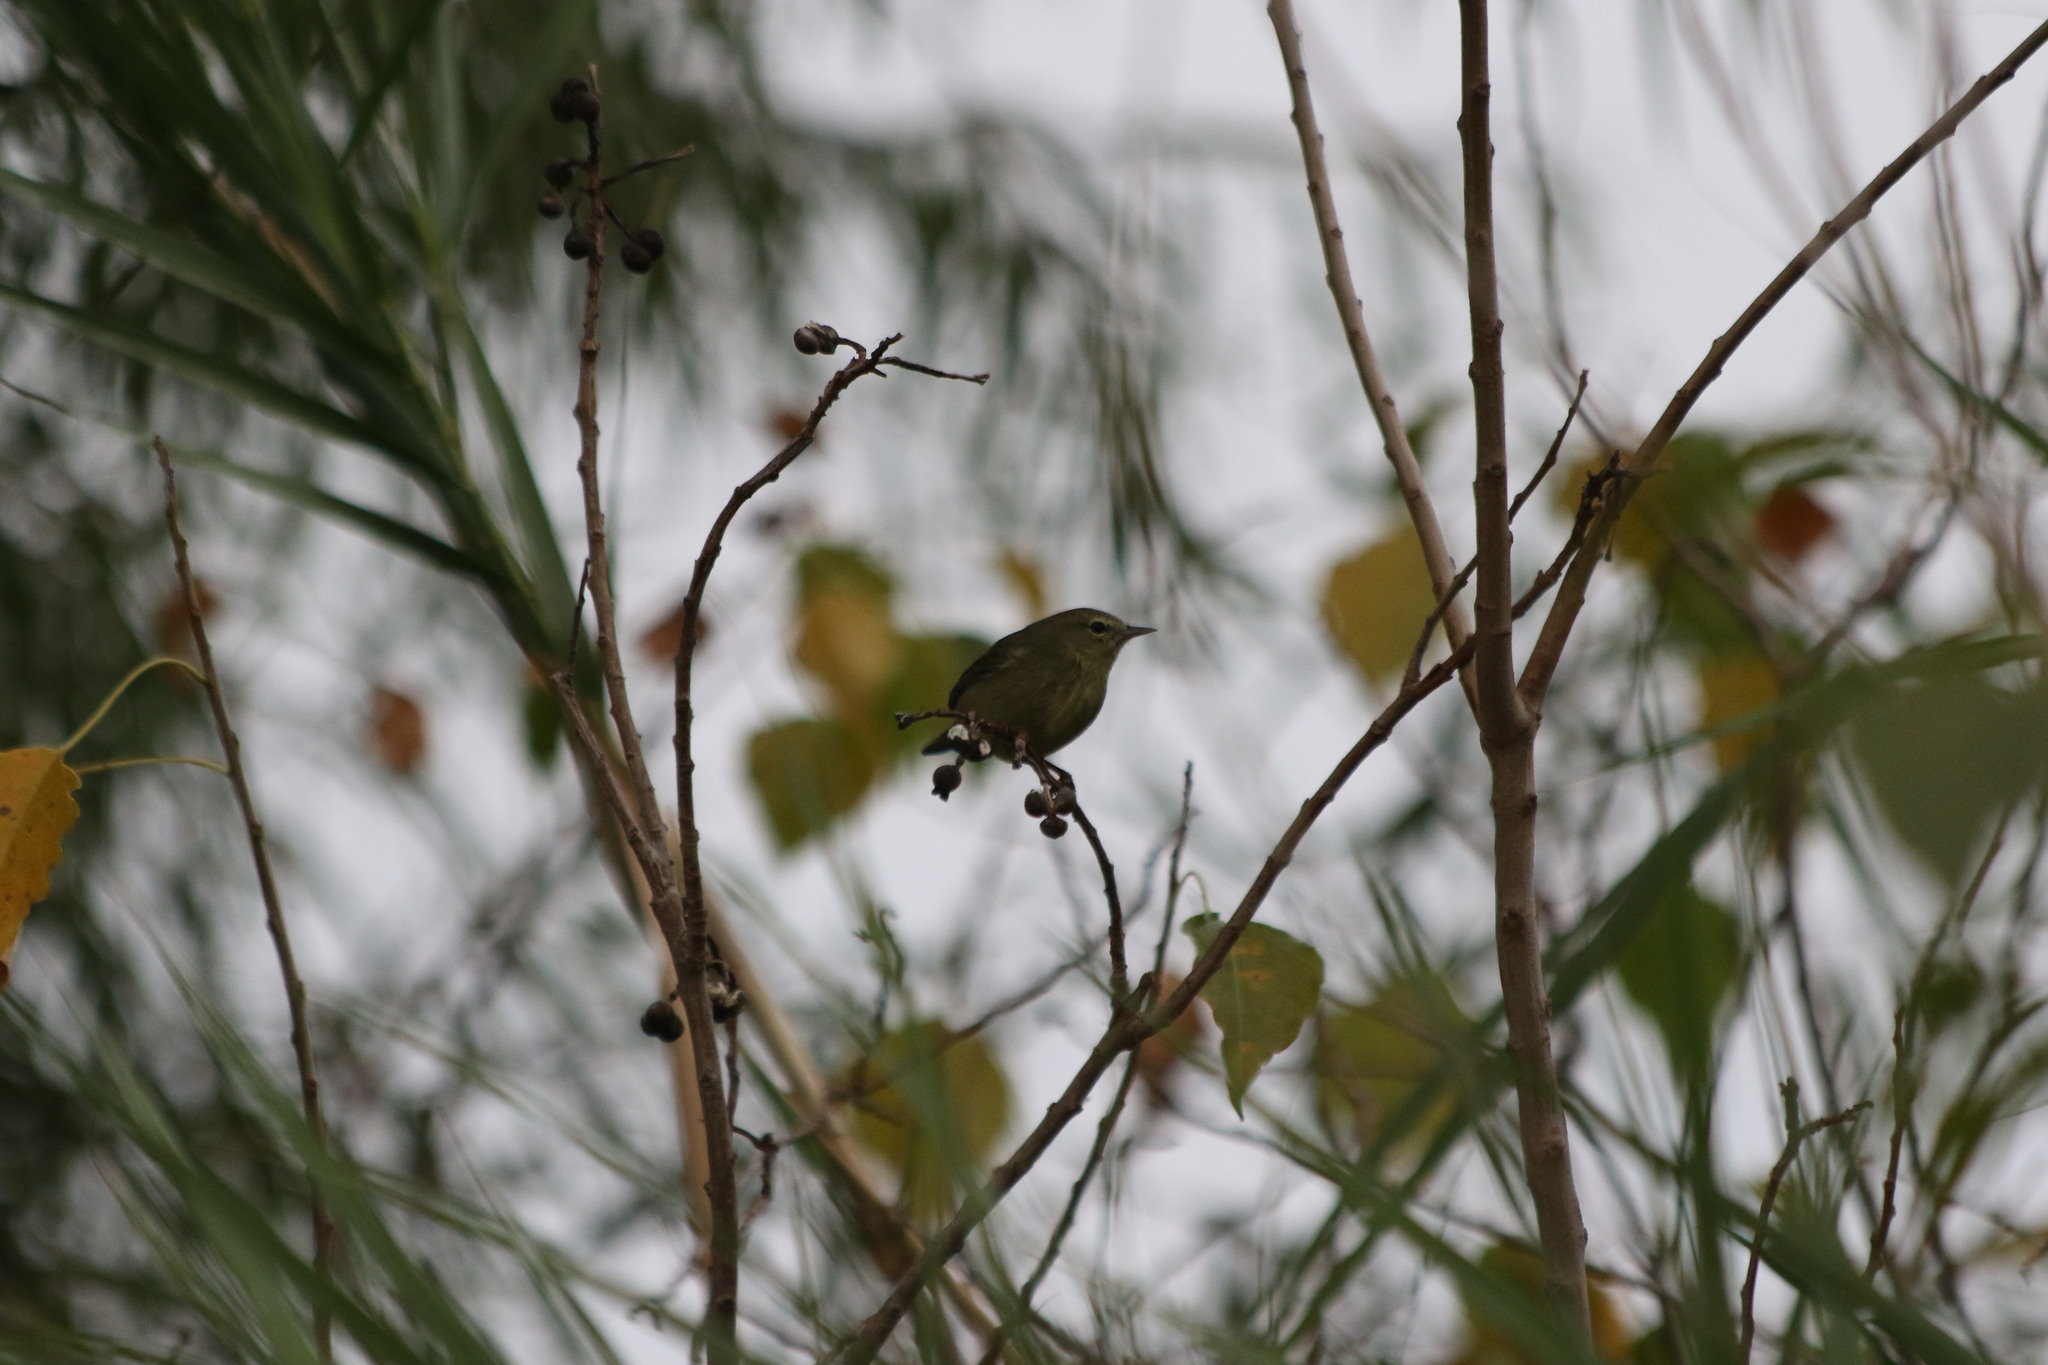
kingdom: Animalia
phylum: Chordata
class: Aves
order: Passeriformes
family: Parulidae
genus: Leiothlypis
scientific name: Leiothlypis celata
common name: Orange-crowned warbler
